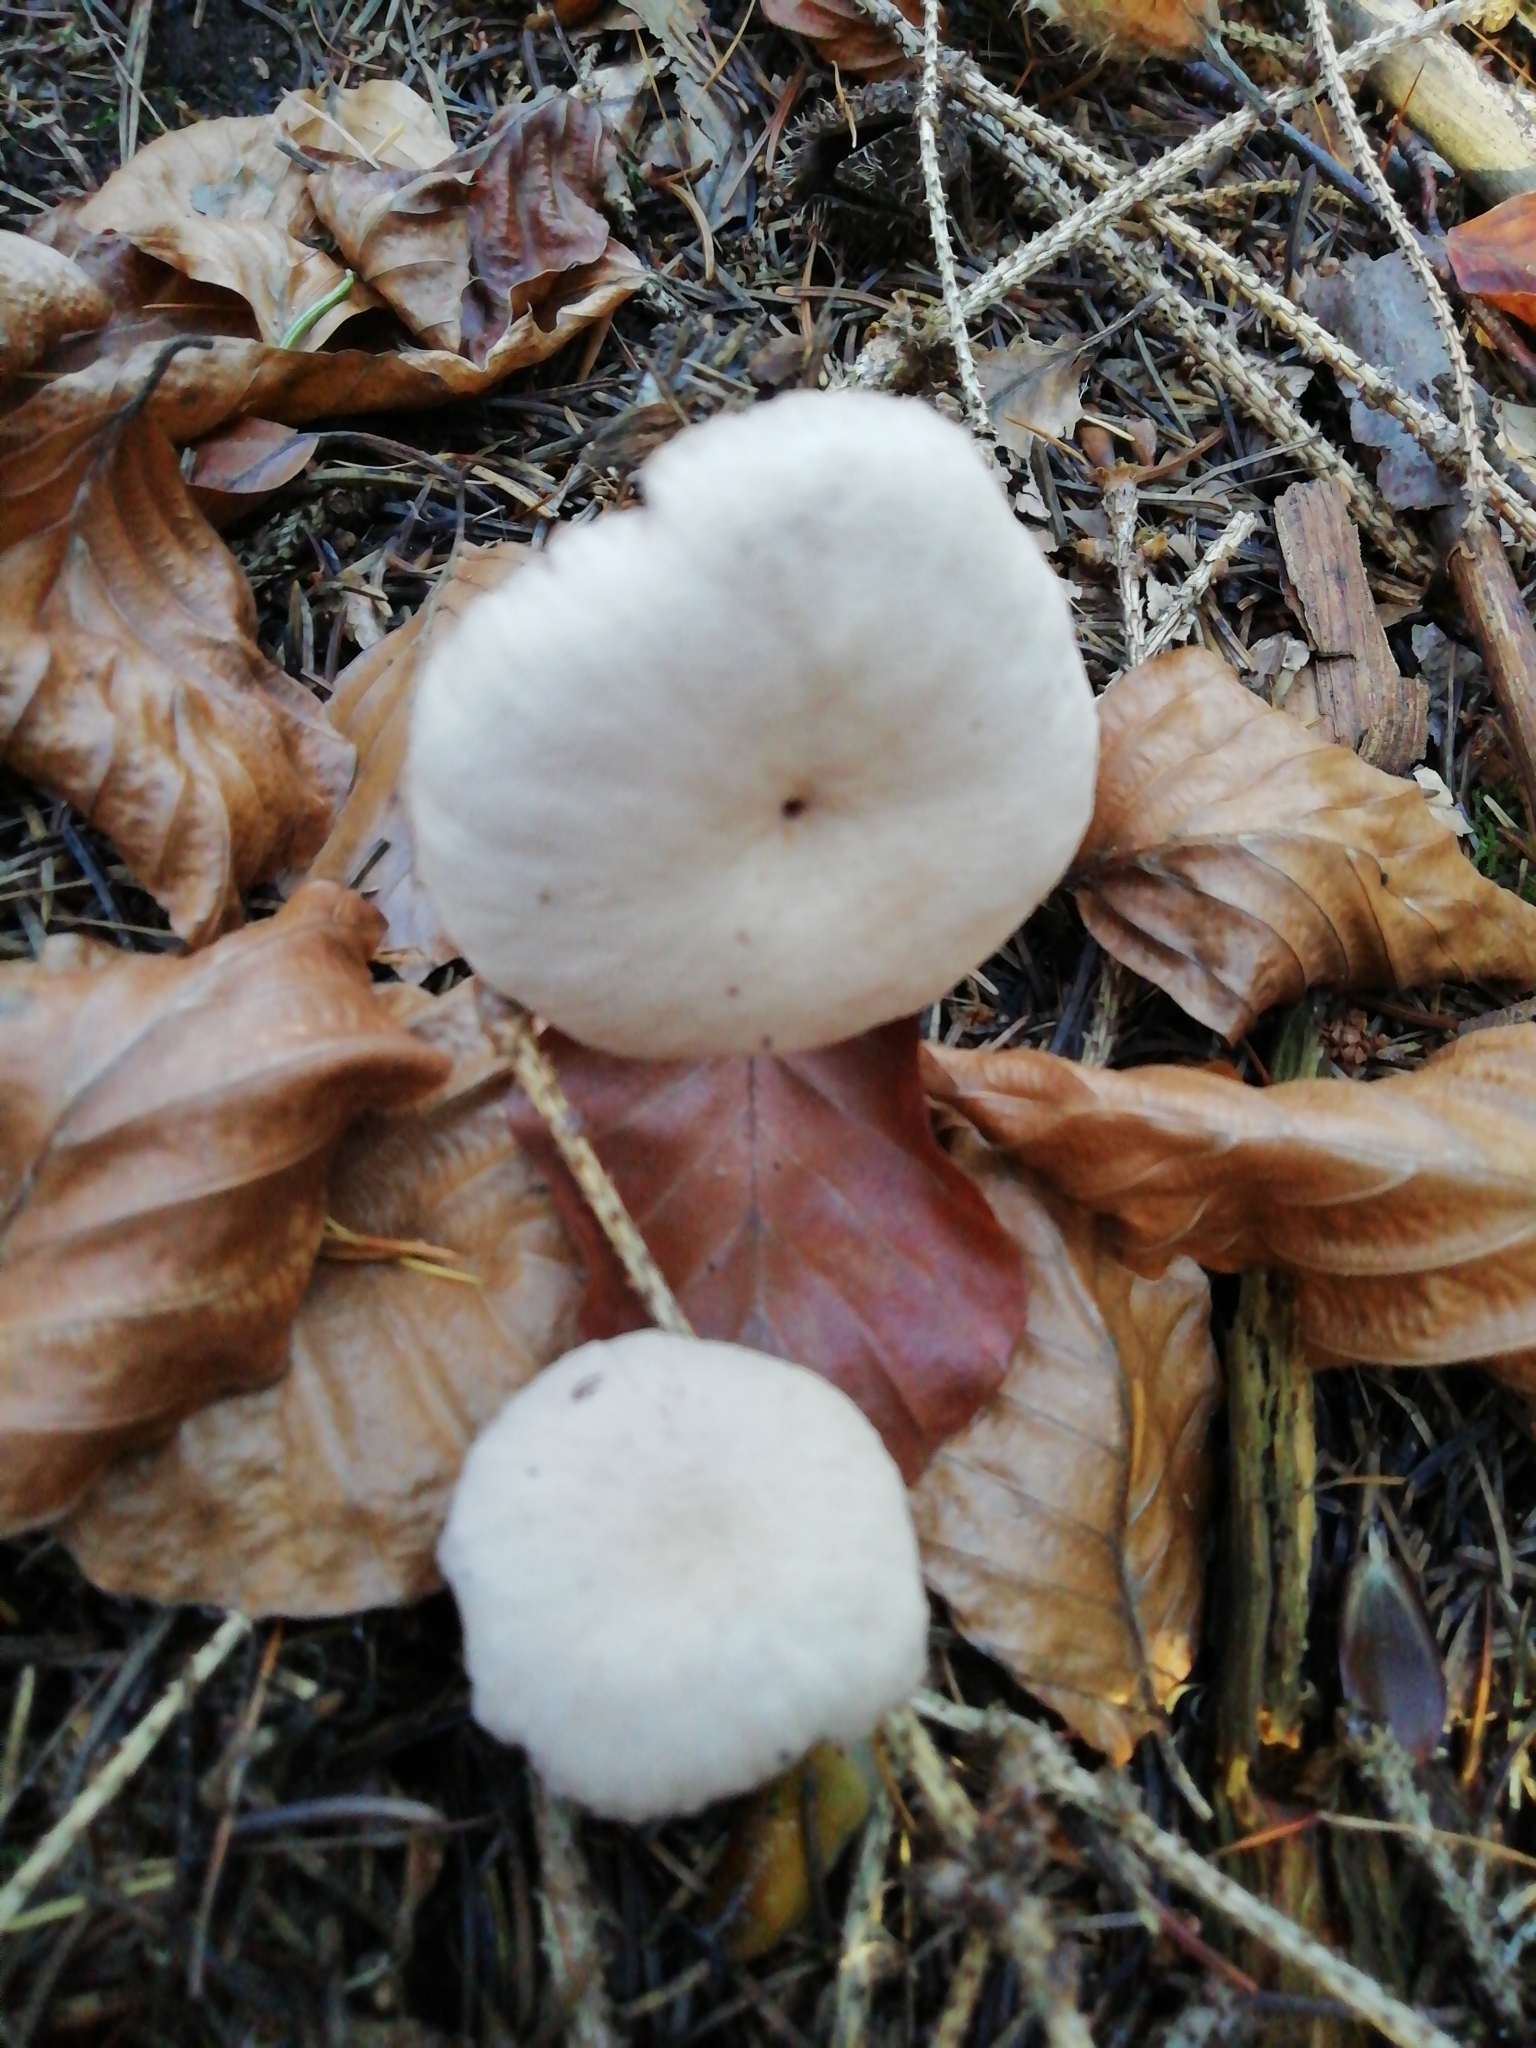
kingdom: Fungi
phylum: Basidiomycota
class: Agaricomycetes
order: Agaricales
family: Hydnangiaceae
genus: Laccaria
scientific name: Laccaria amethystina
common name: Amethyst deceiver
